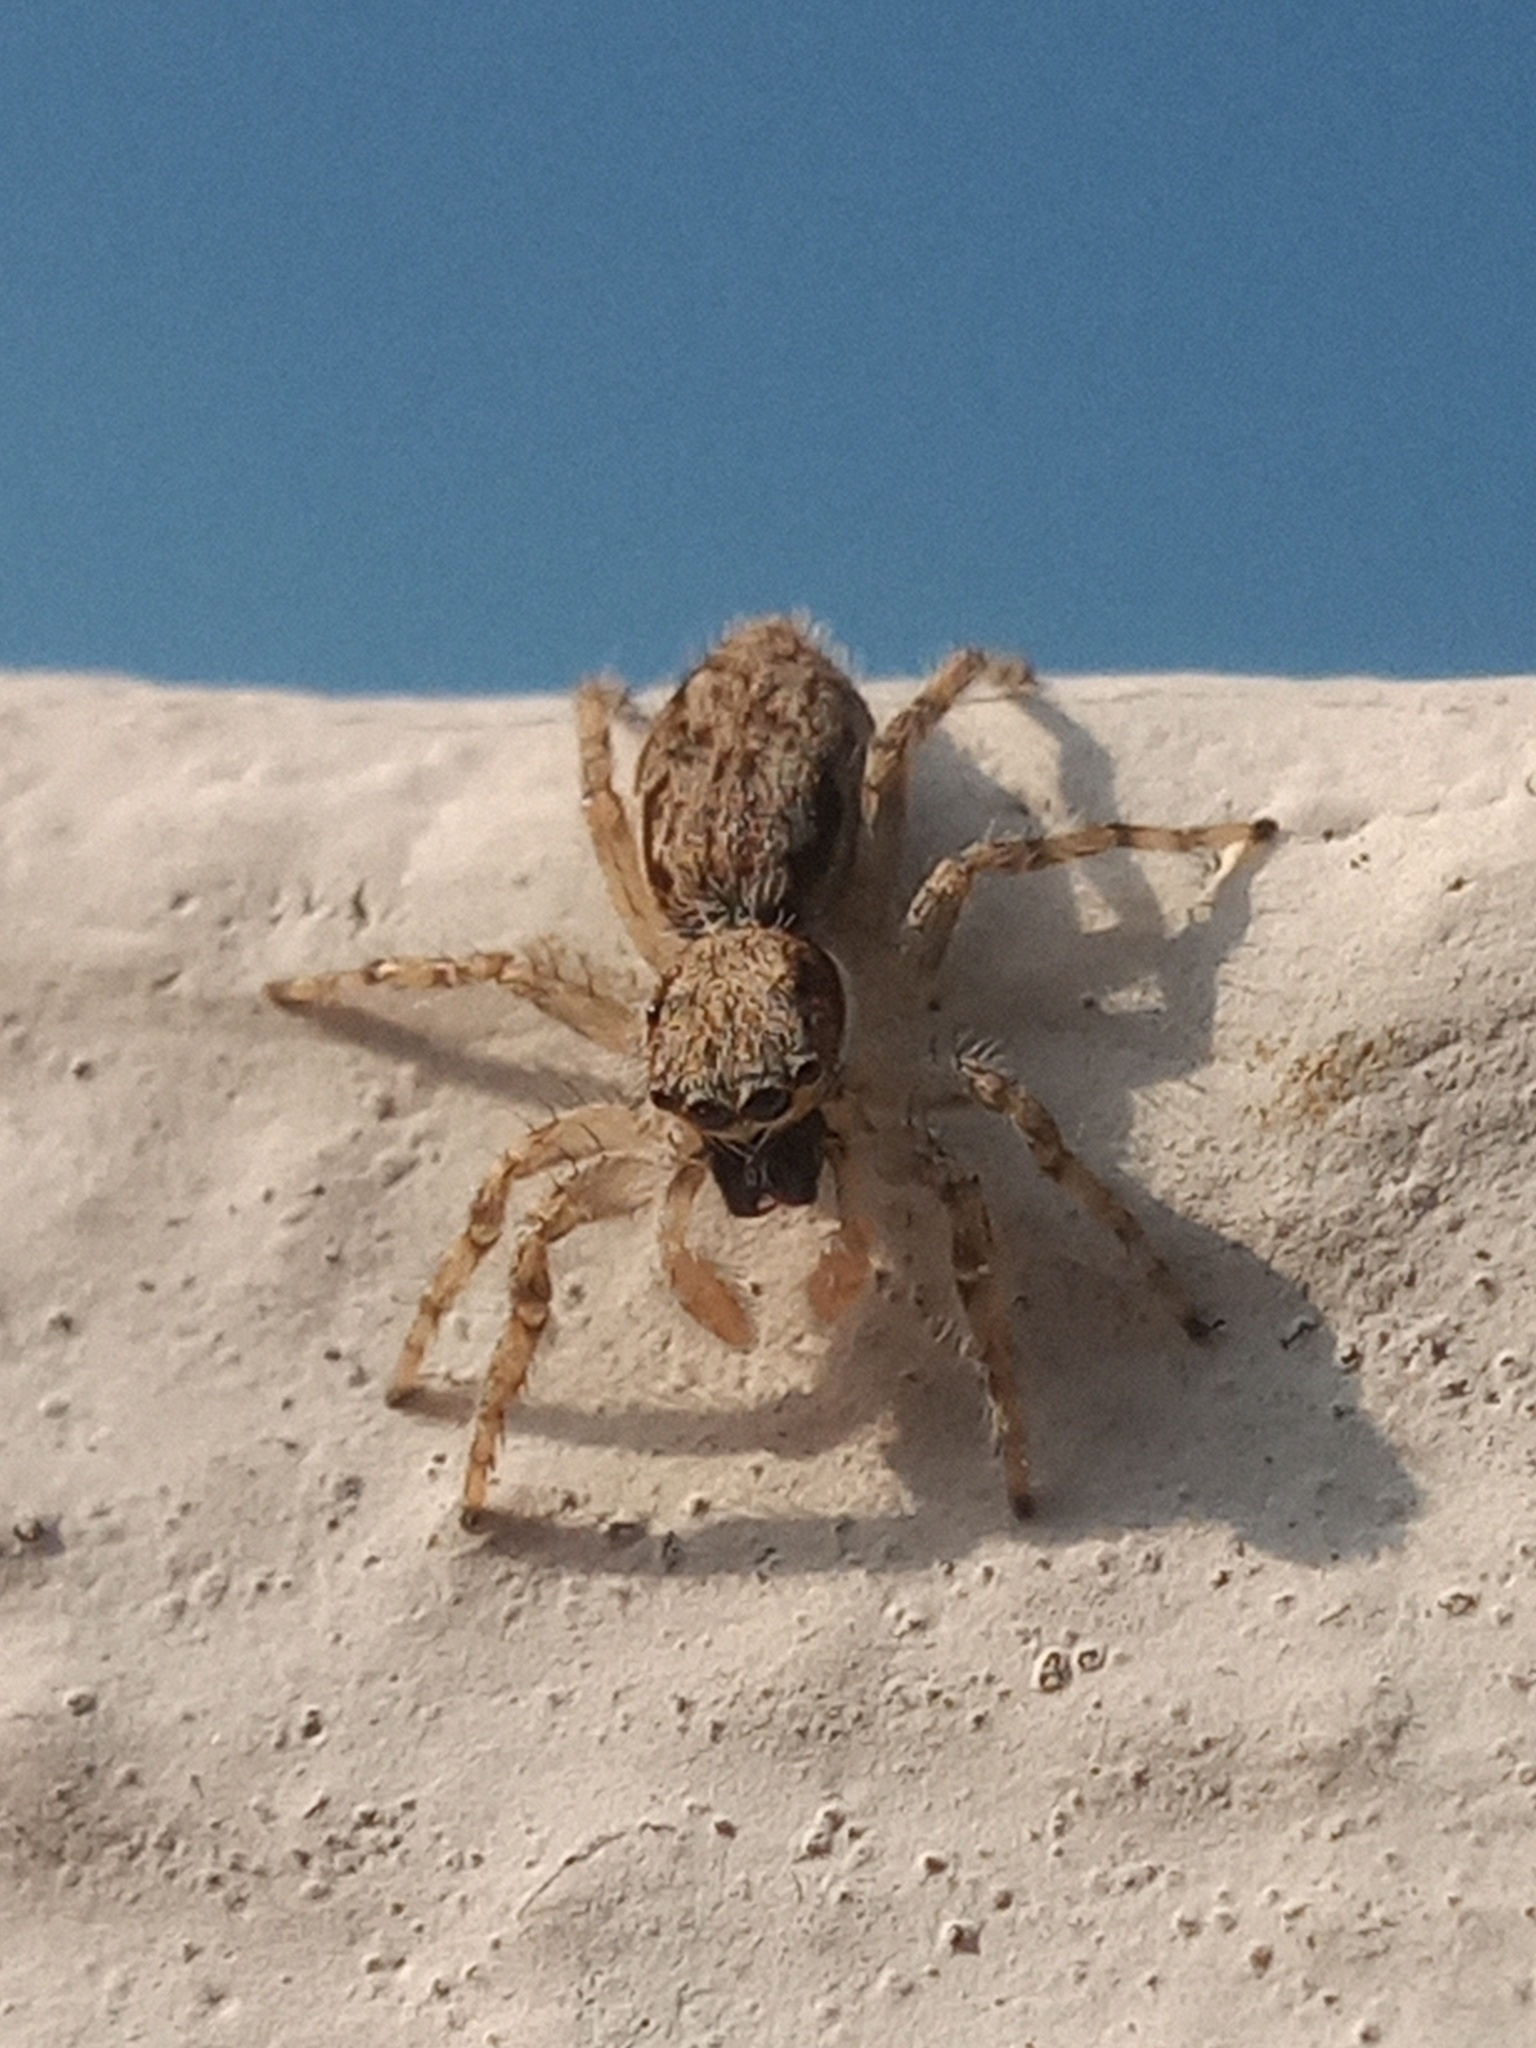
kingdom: Animalia
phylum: Arthropoda
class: Arachnida
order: Araneae
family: Salticidae
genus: Menemerus
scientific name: Menemerus bivittatus
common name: Gray wall jumper
